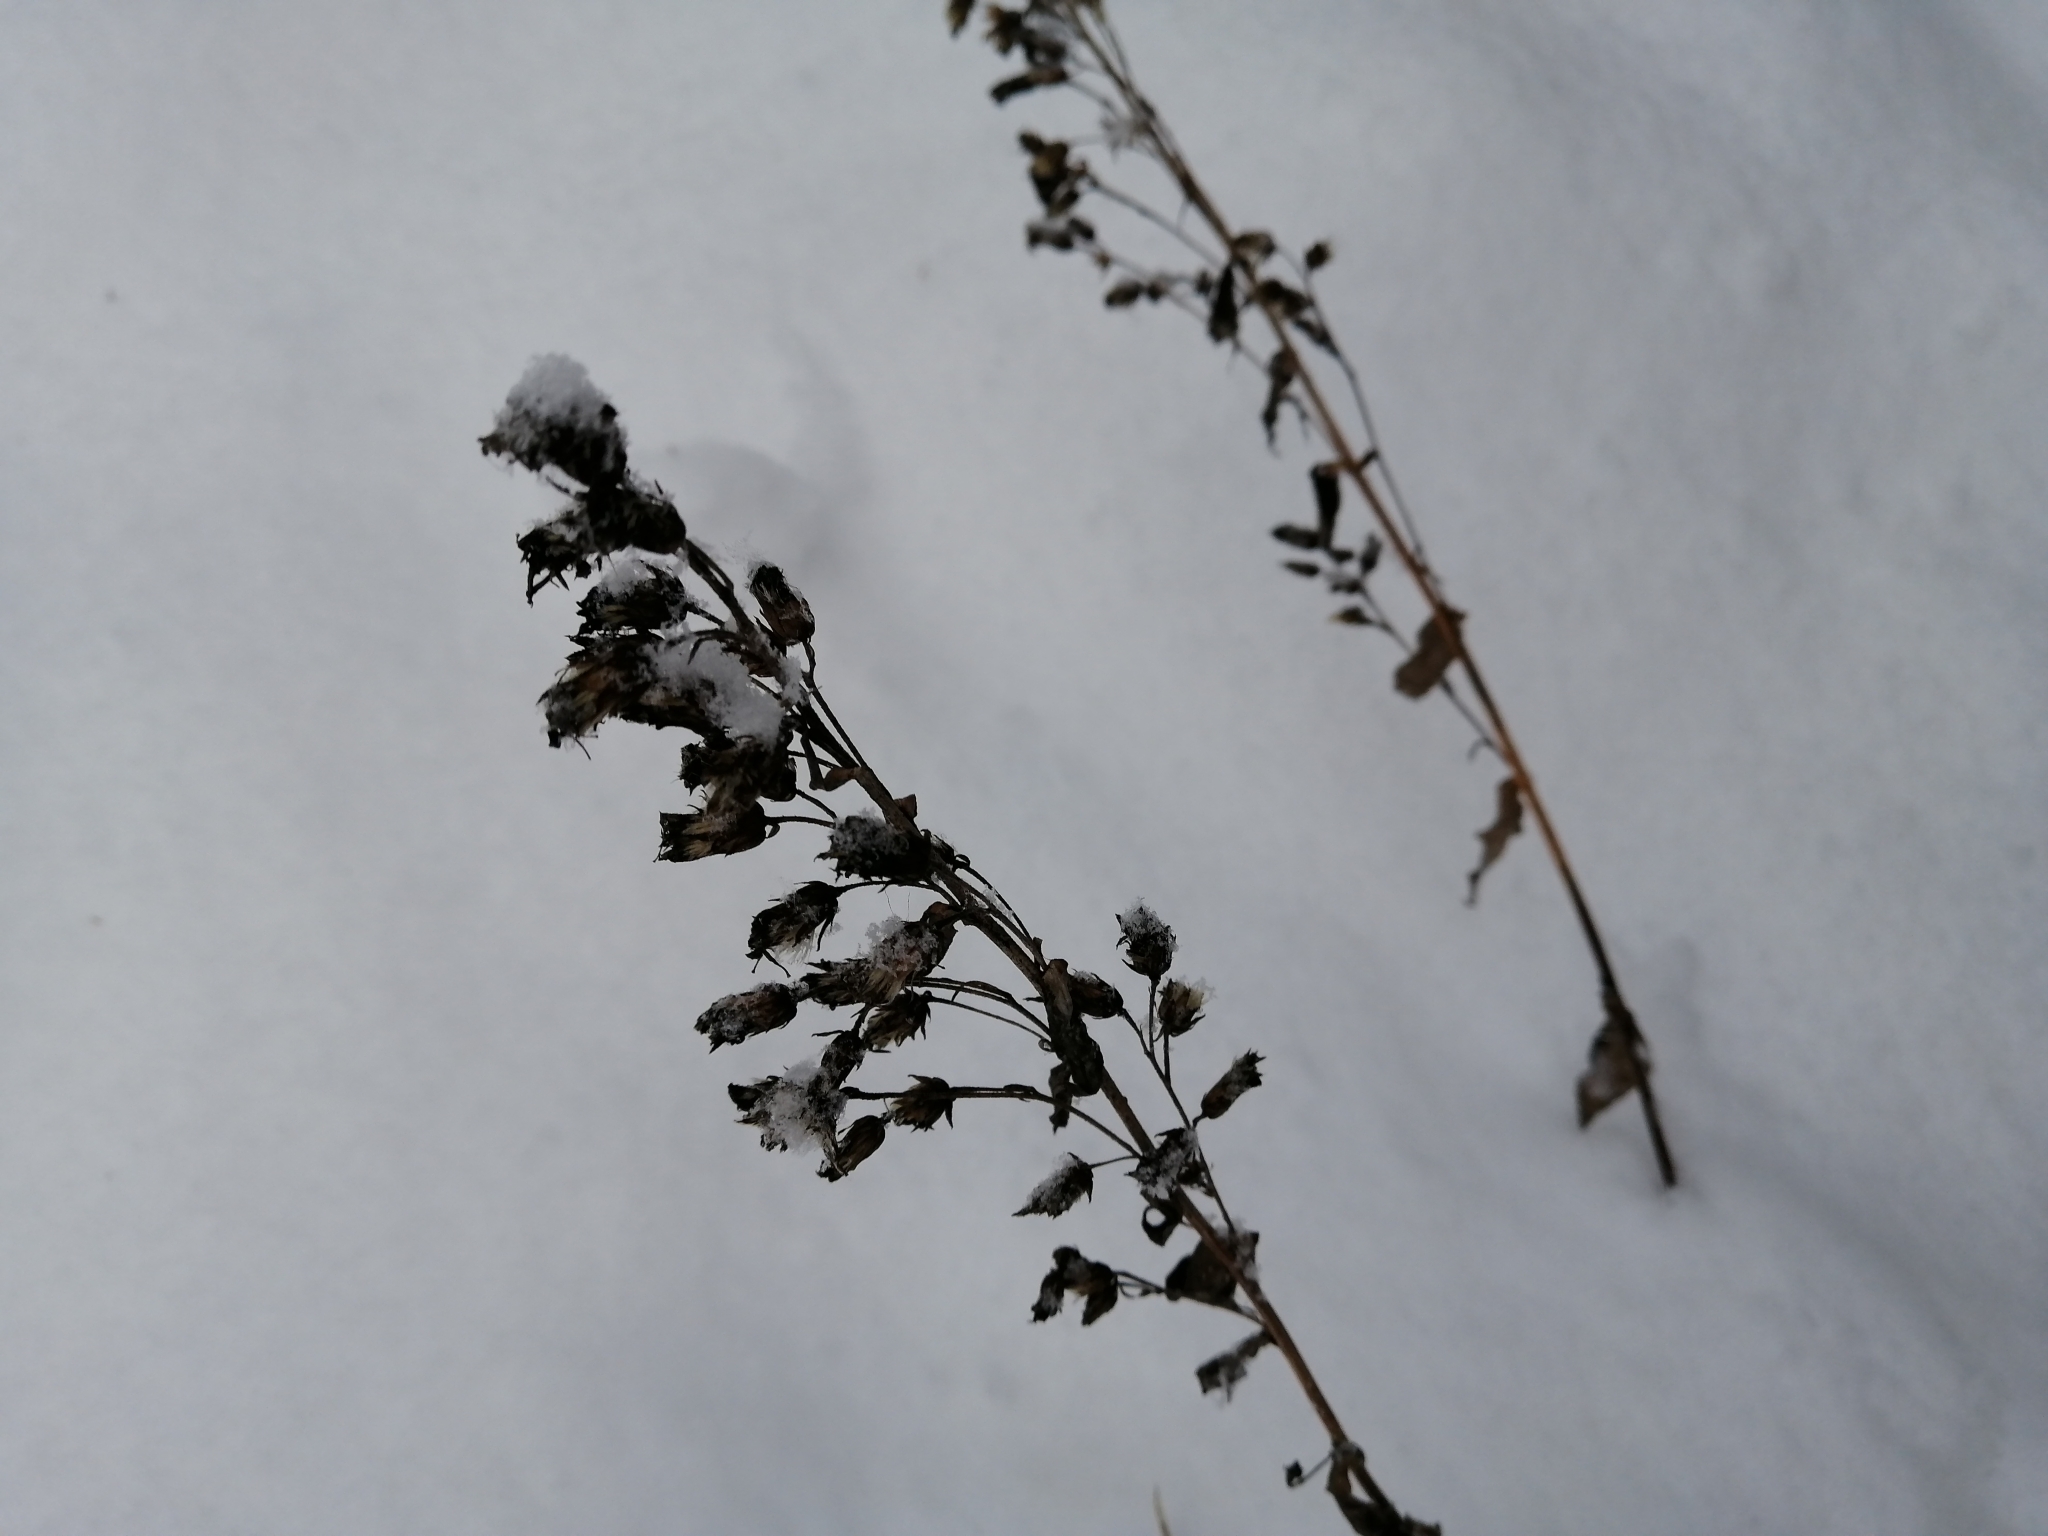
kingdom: Plantae
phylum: Tracheophyta
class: Magnoliopsida
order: Asterales
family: Asteraceae
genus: Solidago
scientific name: Solidago virgaurea
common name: Goldenrod
